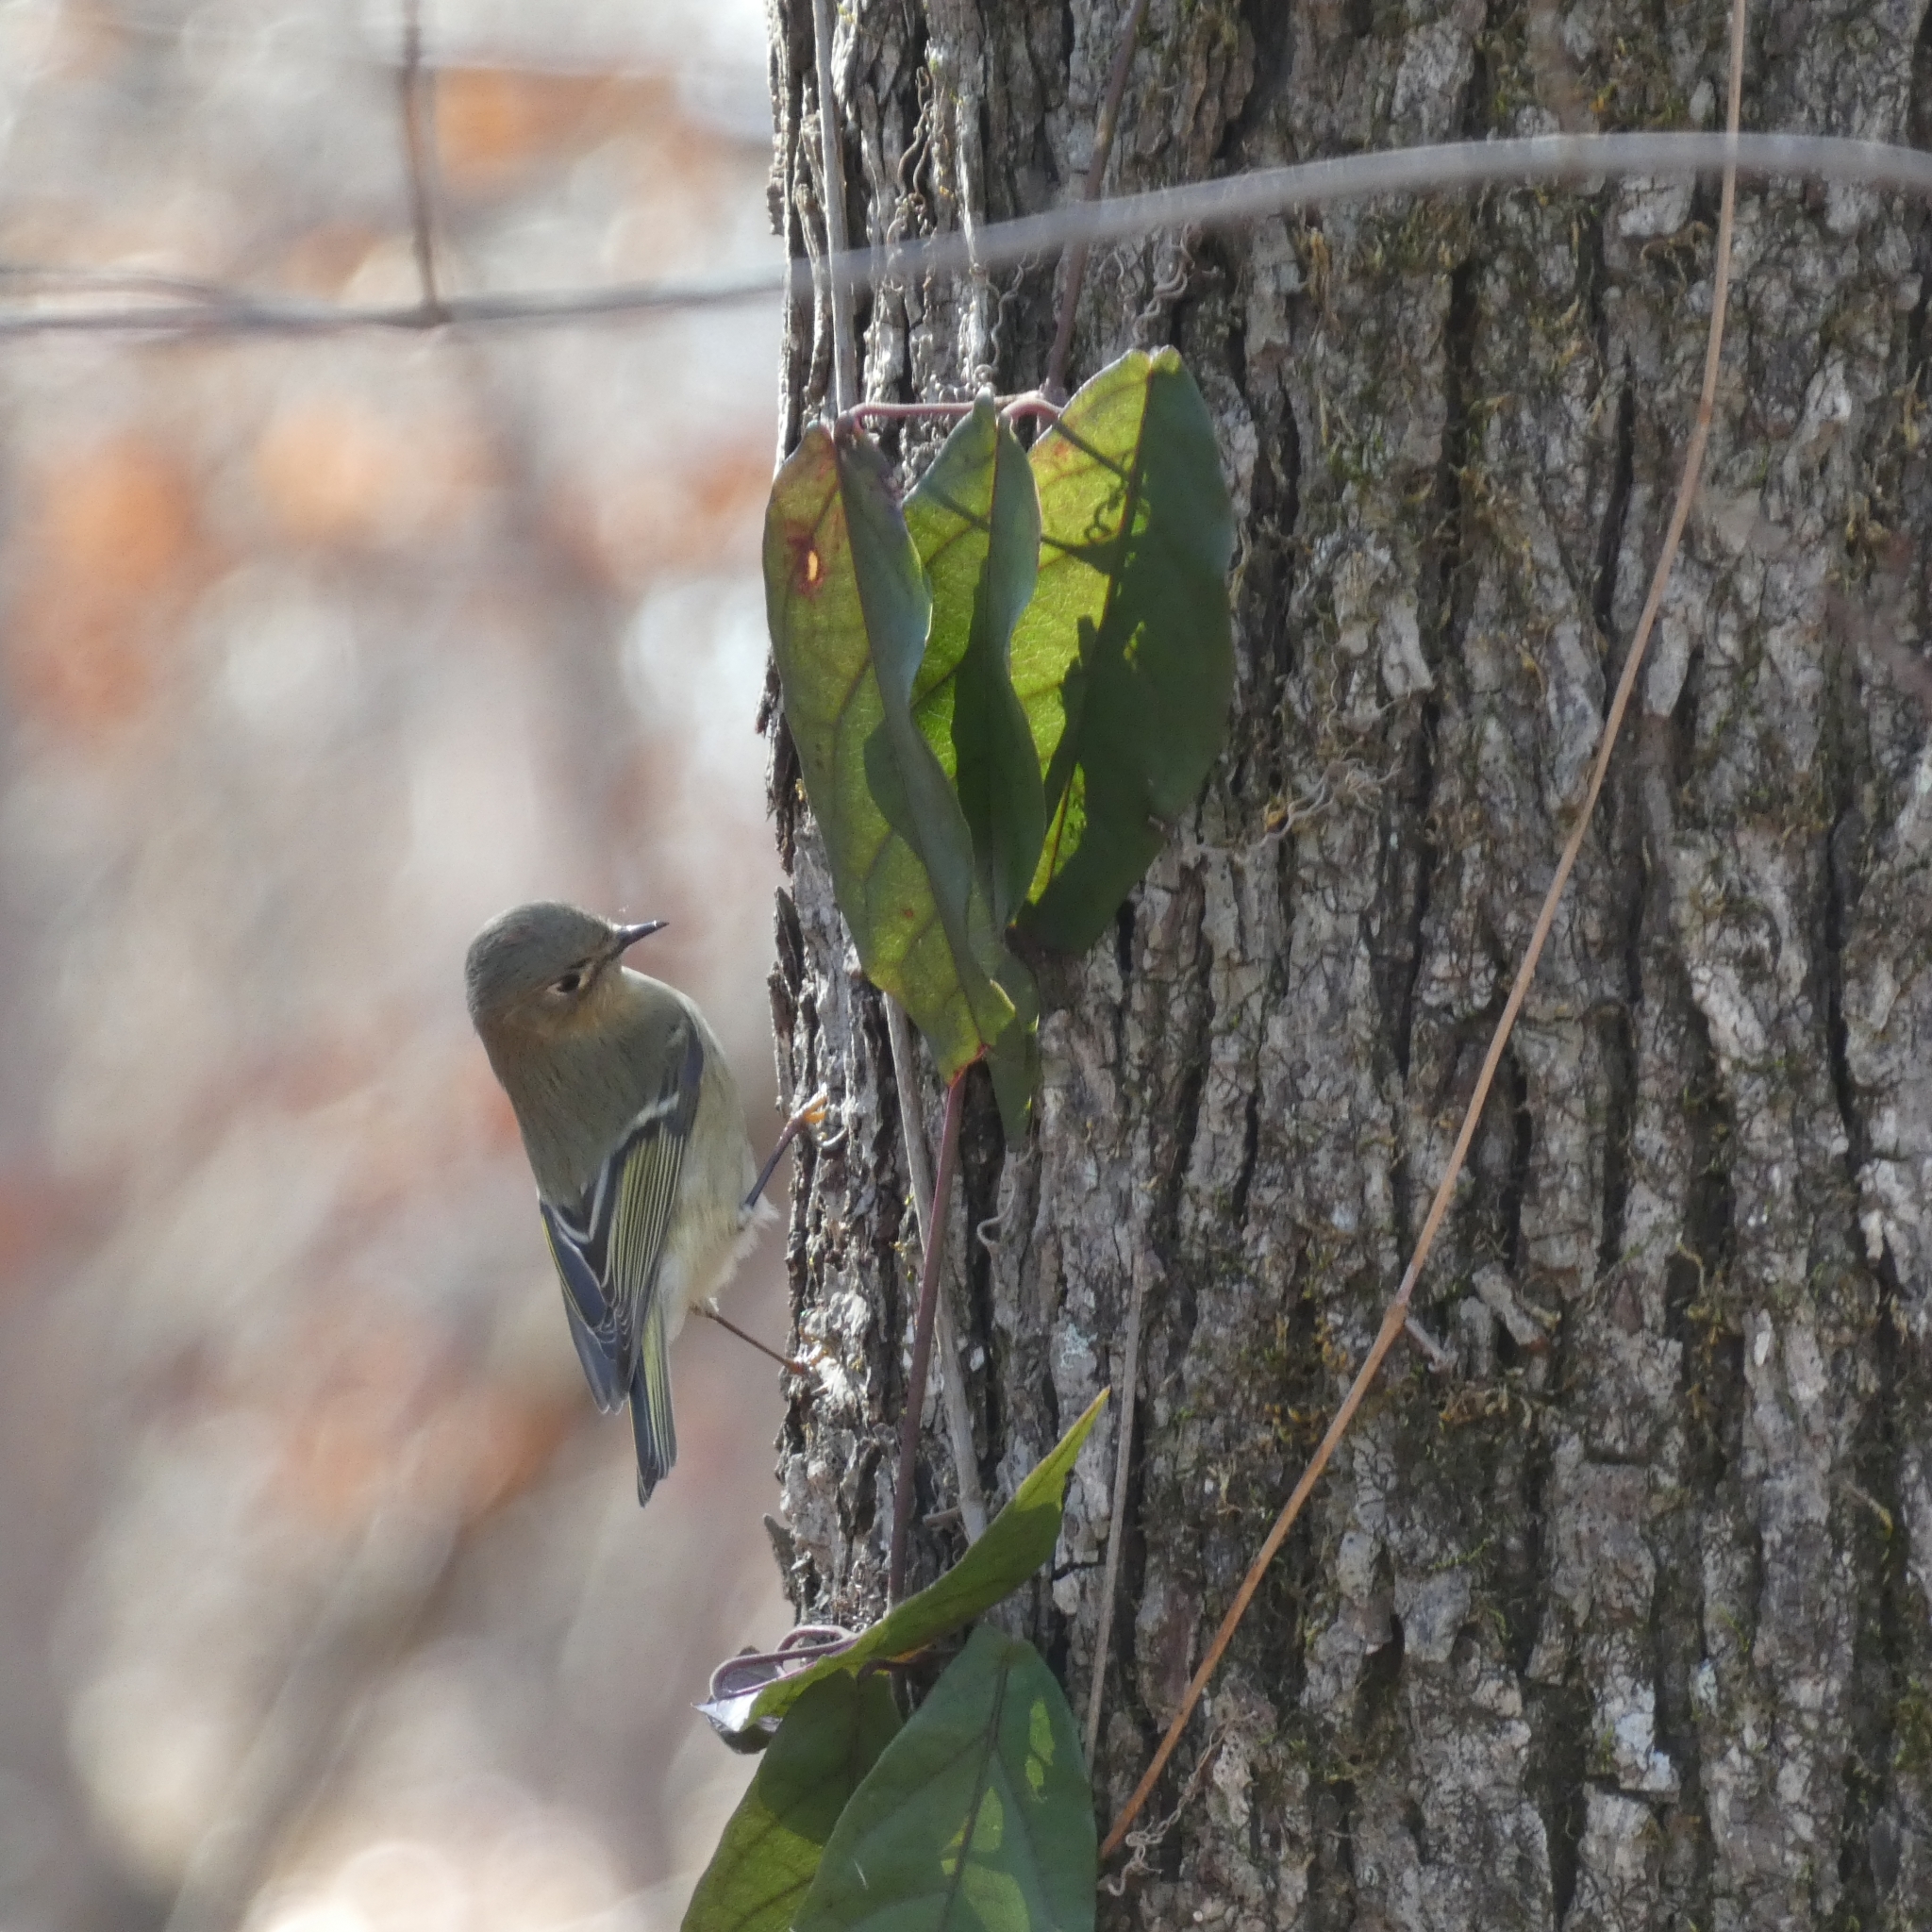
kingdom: Animalia
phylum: Chordata
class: Aves
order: Passeriformes
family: Regulidae
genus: Regulus
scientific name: Regulus calendula
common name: Ruby-crowned kinglet
